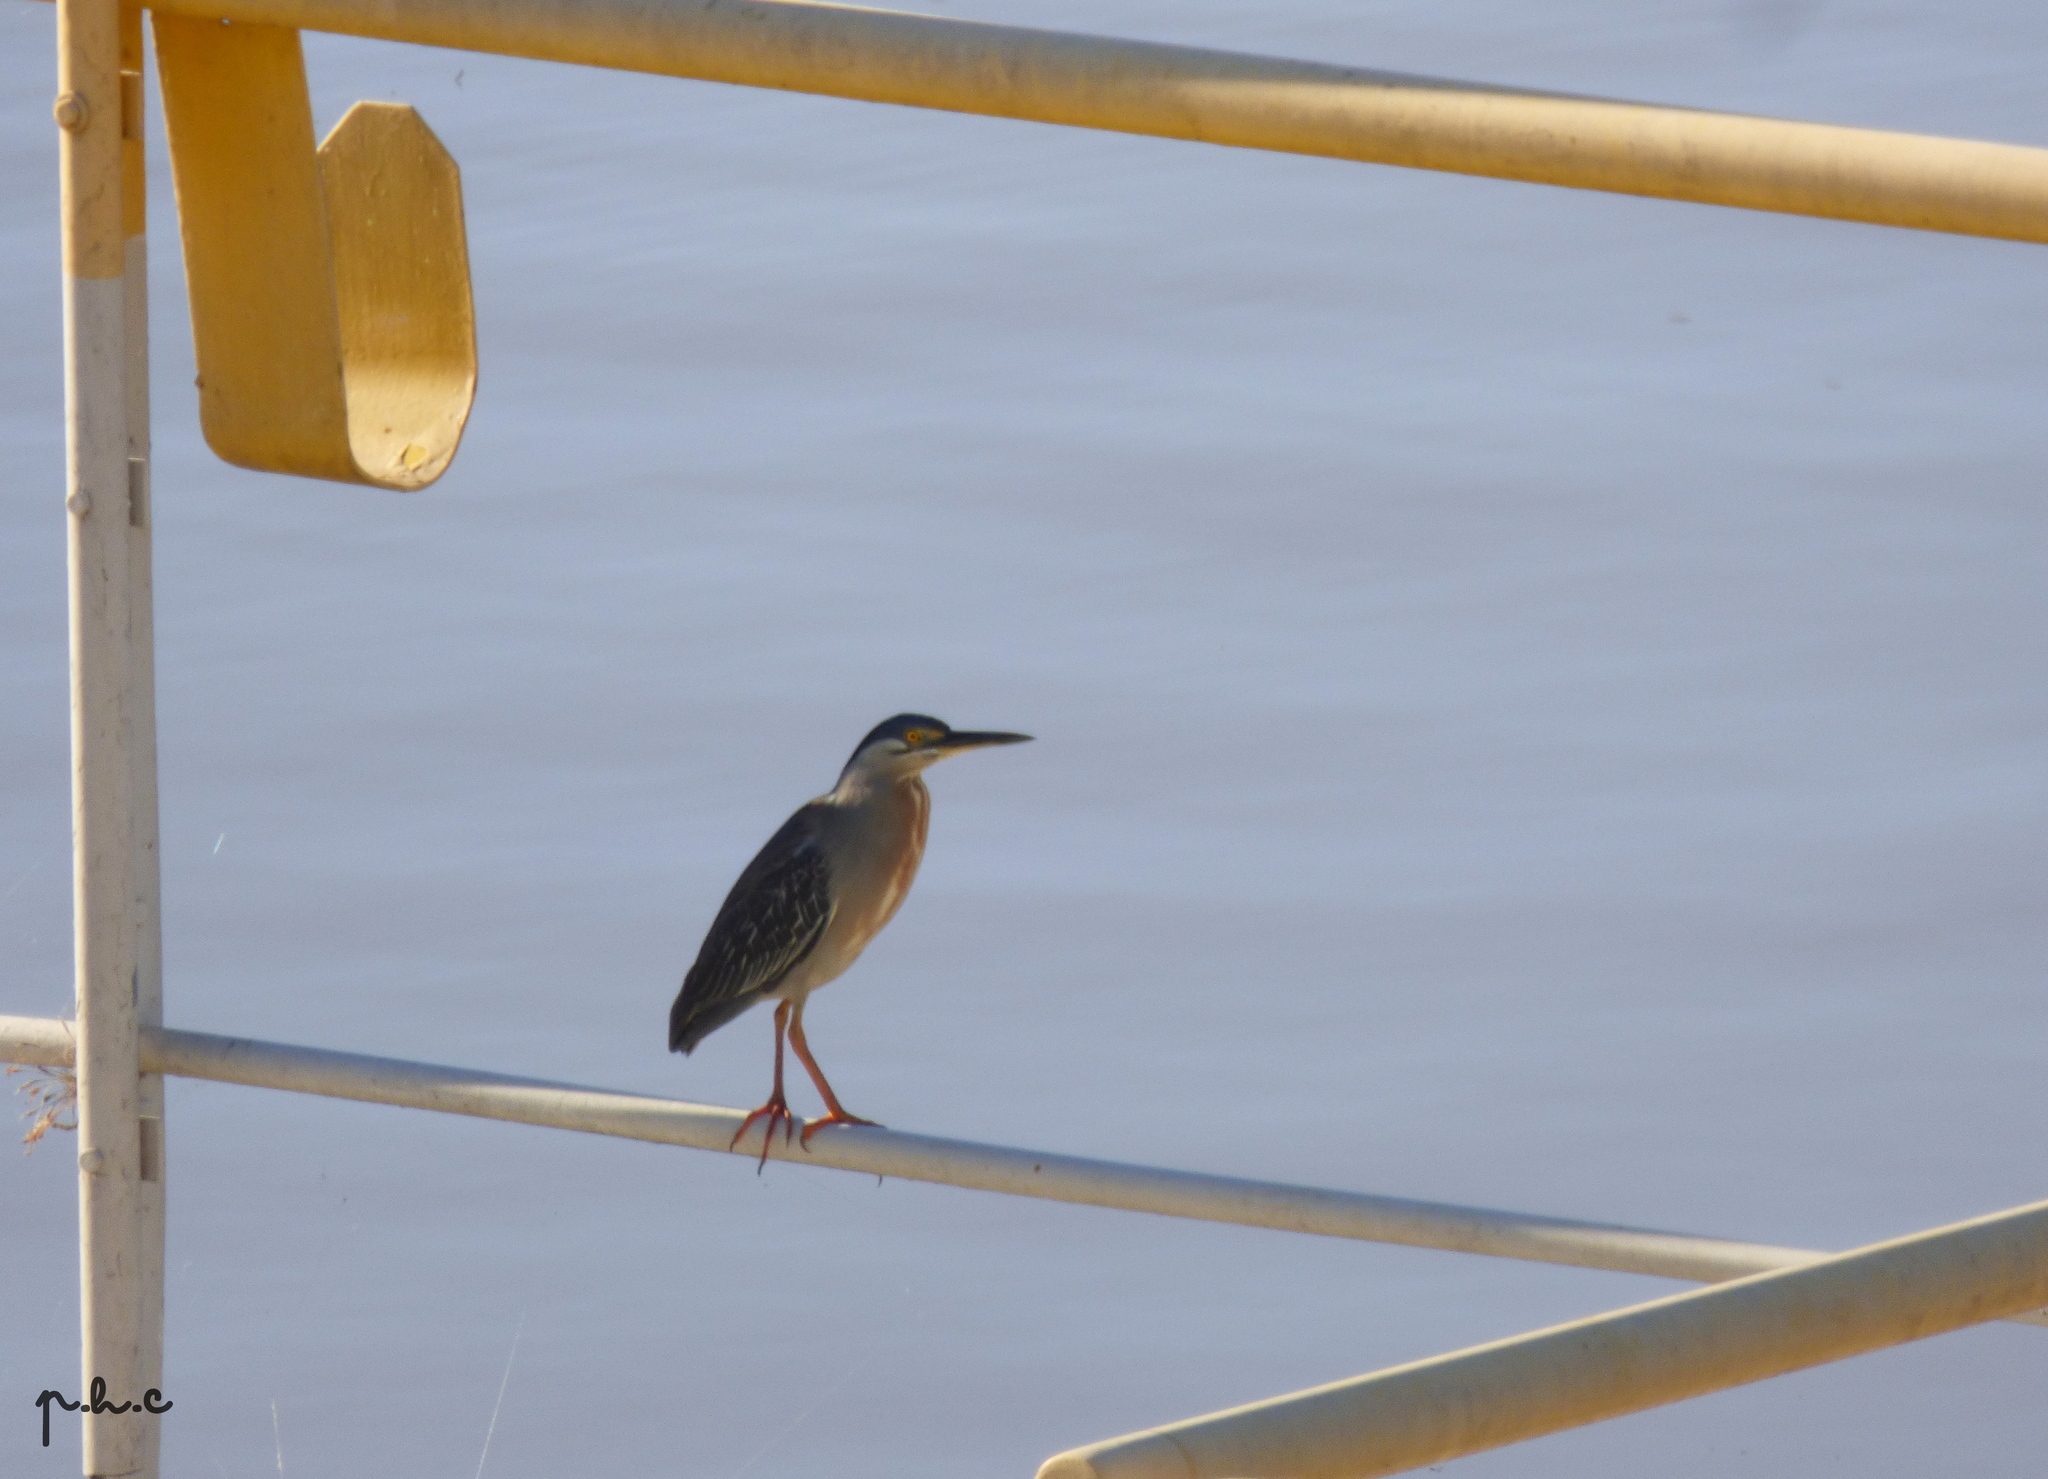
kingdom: Animalia
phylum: Chordata
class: Aves
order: Pelecaniformes
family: Ardeidae
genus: Butorides
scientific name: Butorides striata
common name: Striated heron
